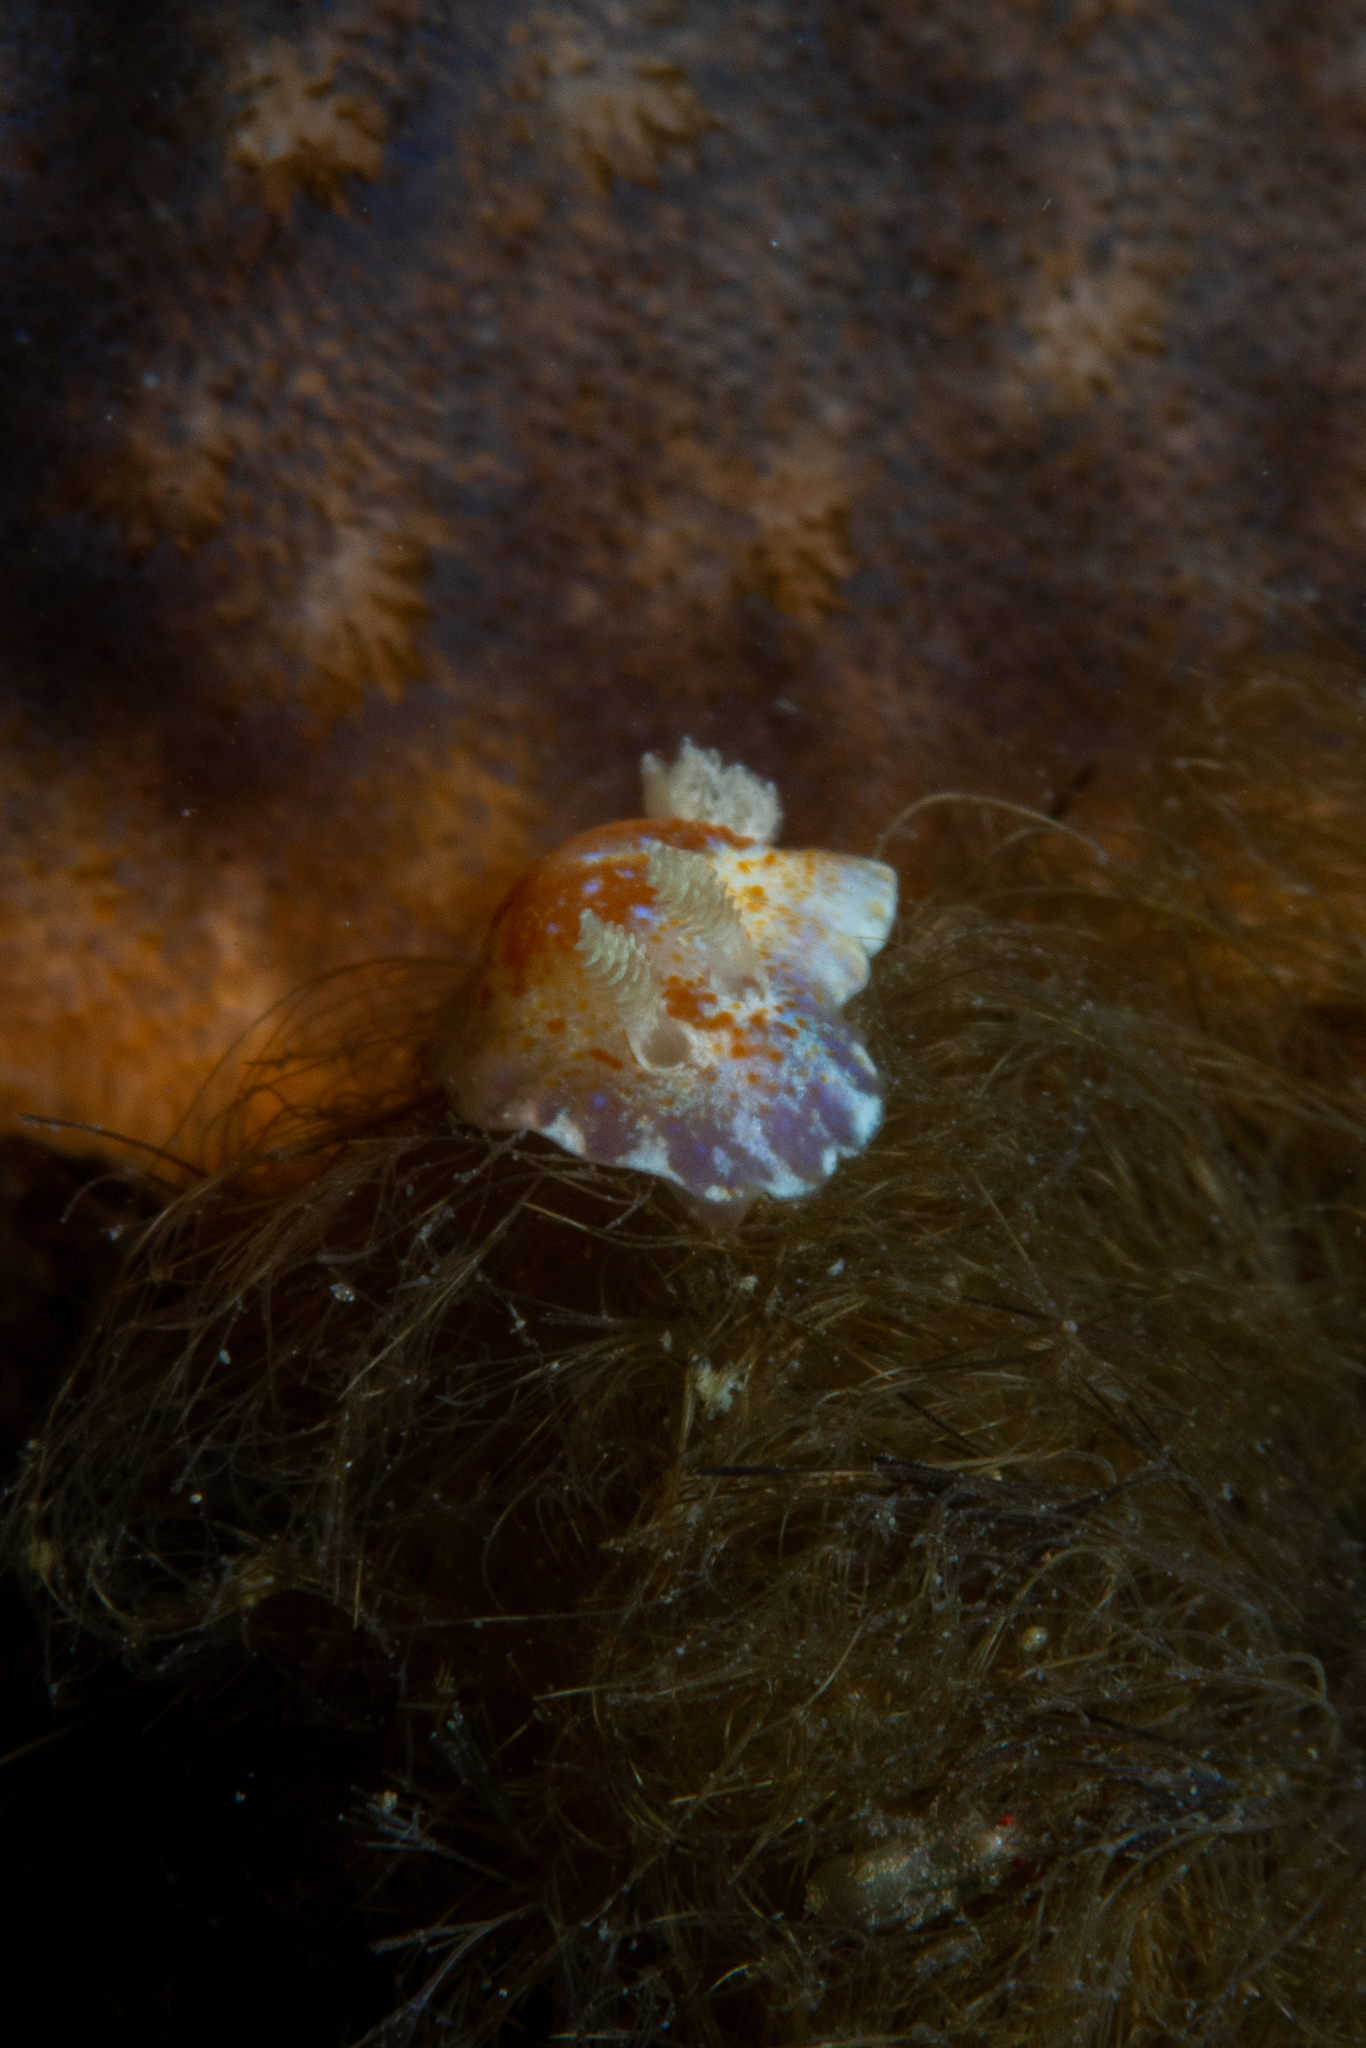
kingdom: Animalia
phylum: Mollusca
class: Gastropoda
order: Nudibranchia
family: Chromodorididae
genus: Chromodoris
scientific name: Chromodoris alternata
